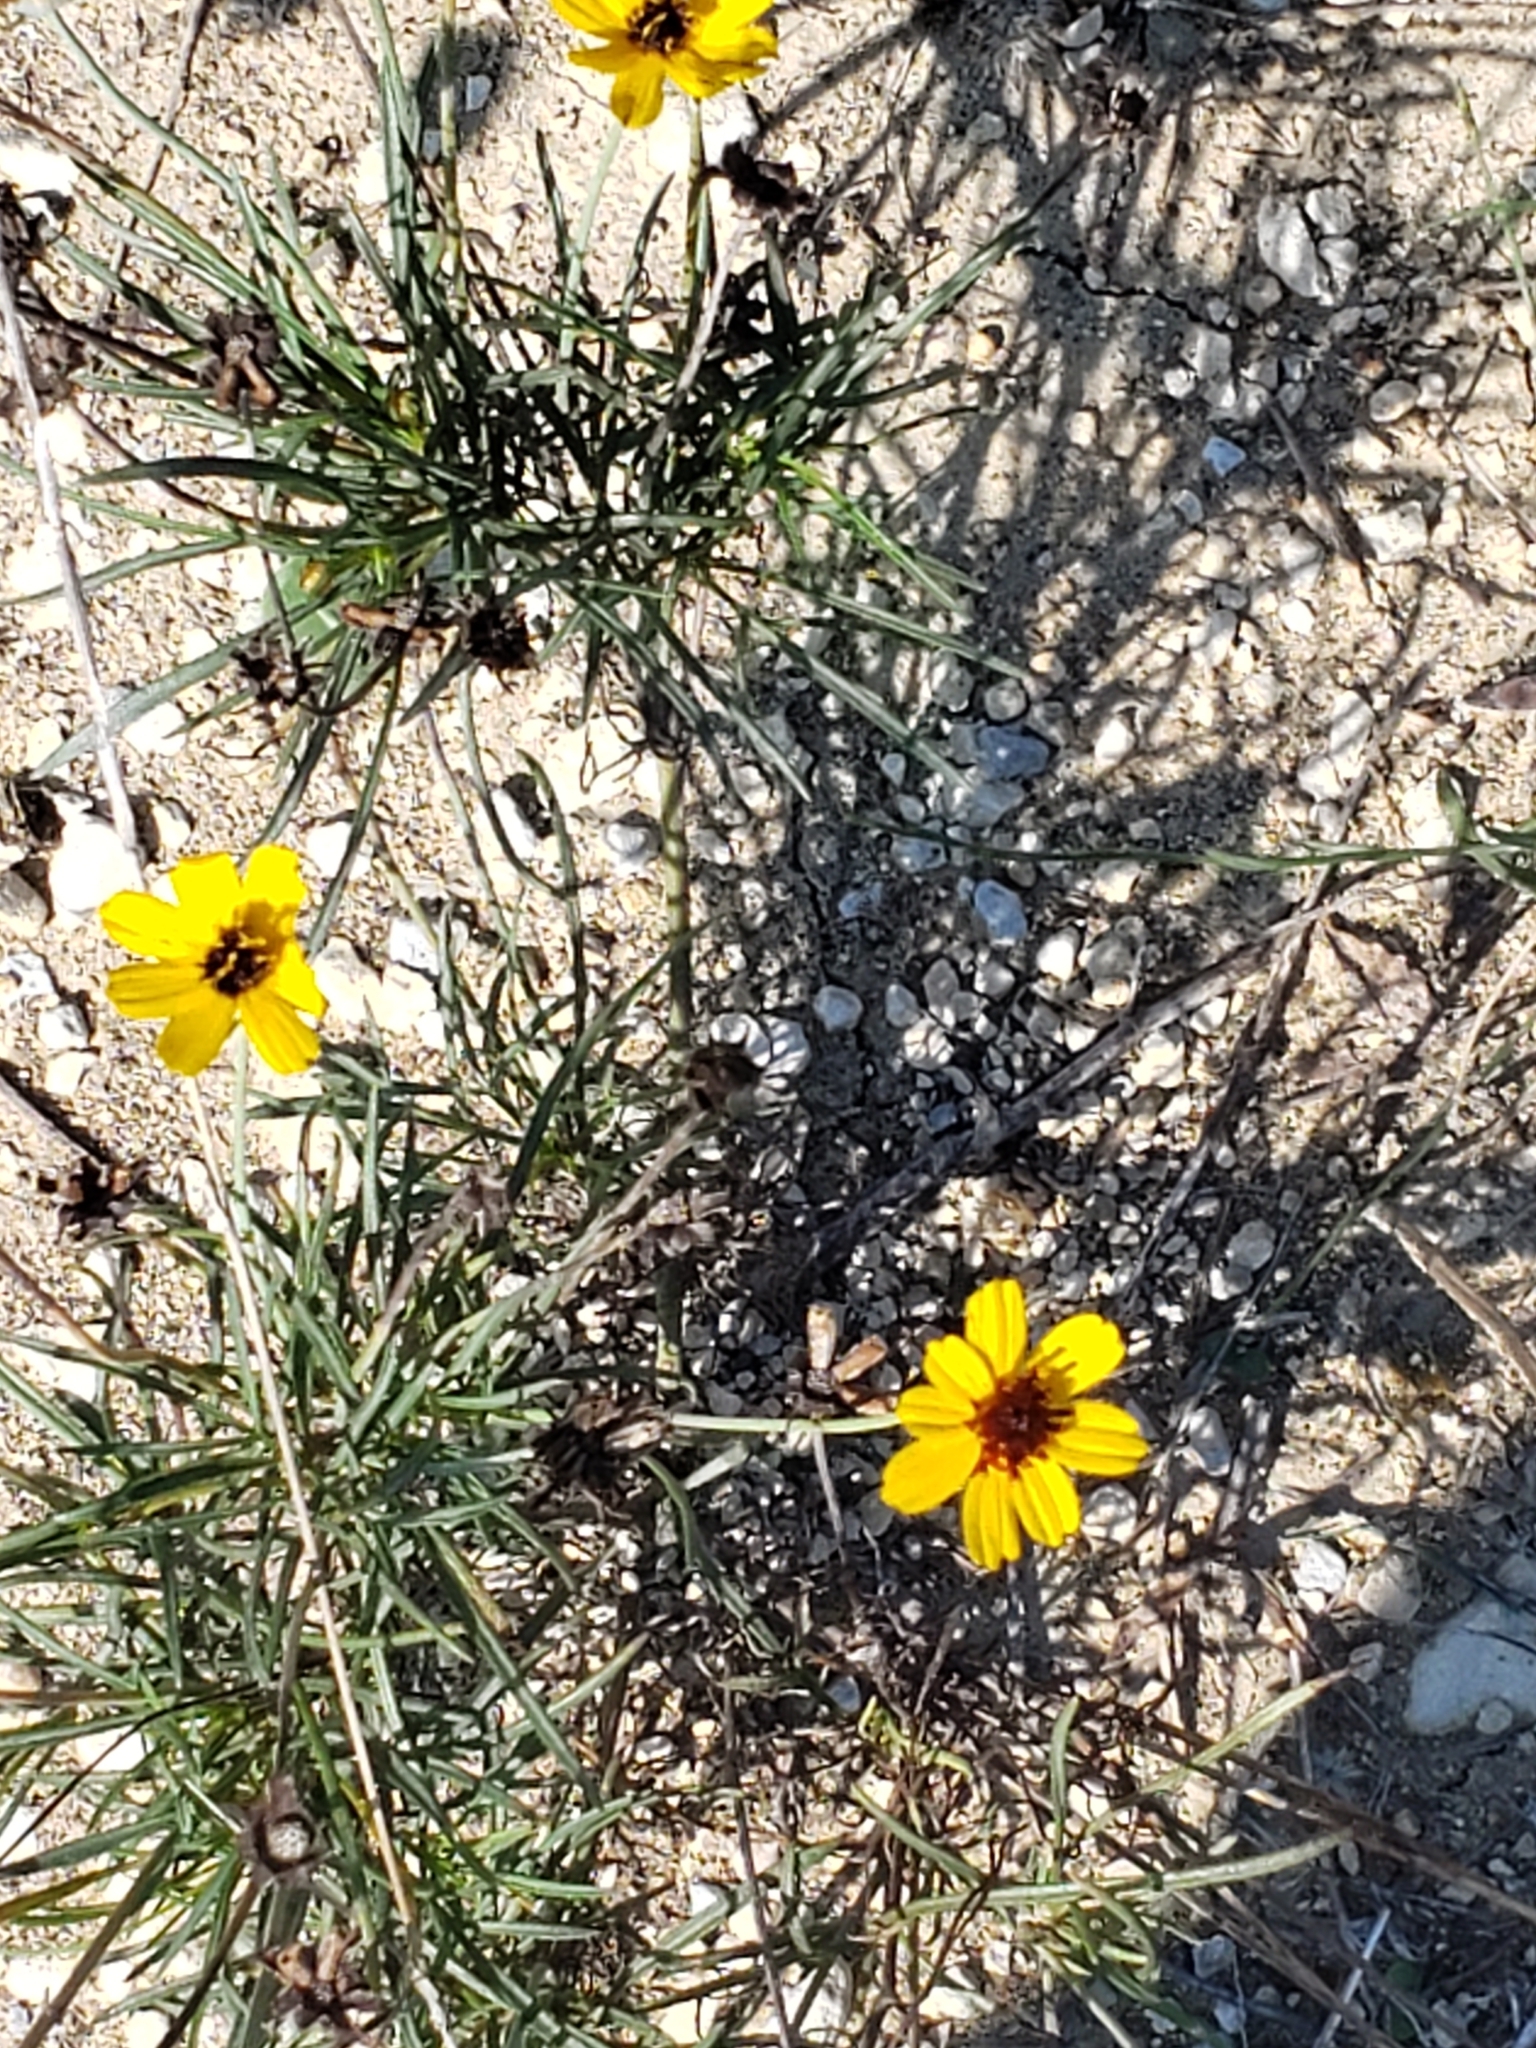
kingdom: Plantae
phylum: Tracheophyta
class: Magnoliopsida
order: Asterales
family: Asteraceae
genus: Thelesperma
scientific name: Thelesperma filifolium
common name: Stiff greenthread
